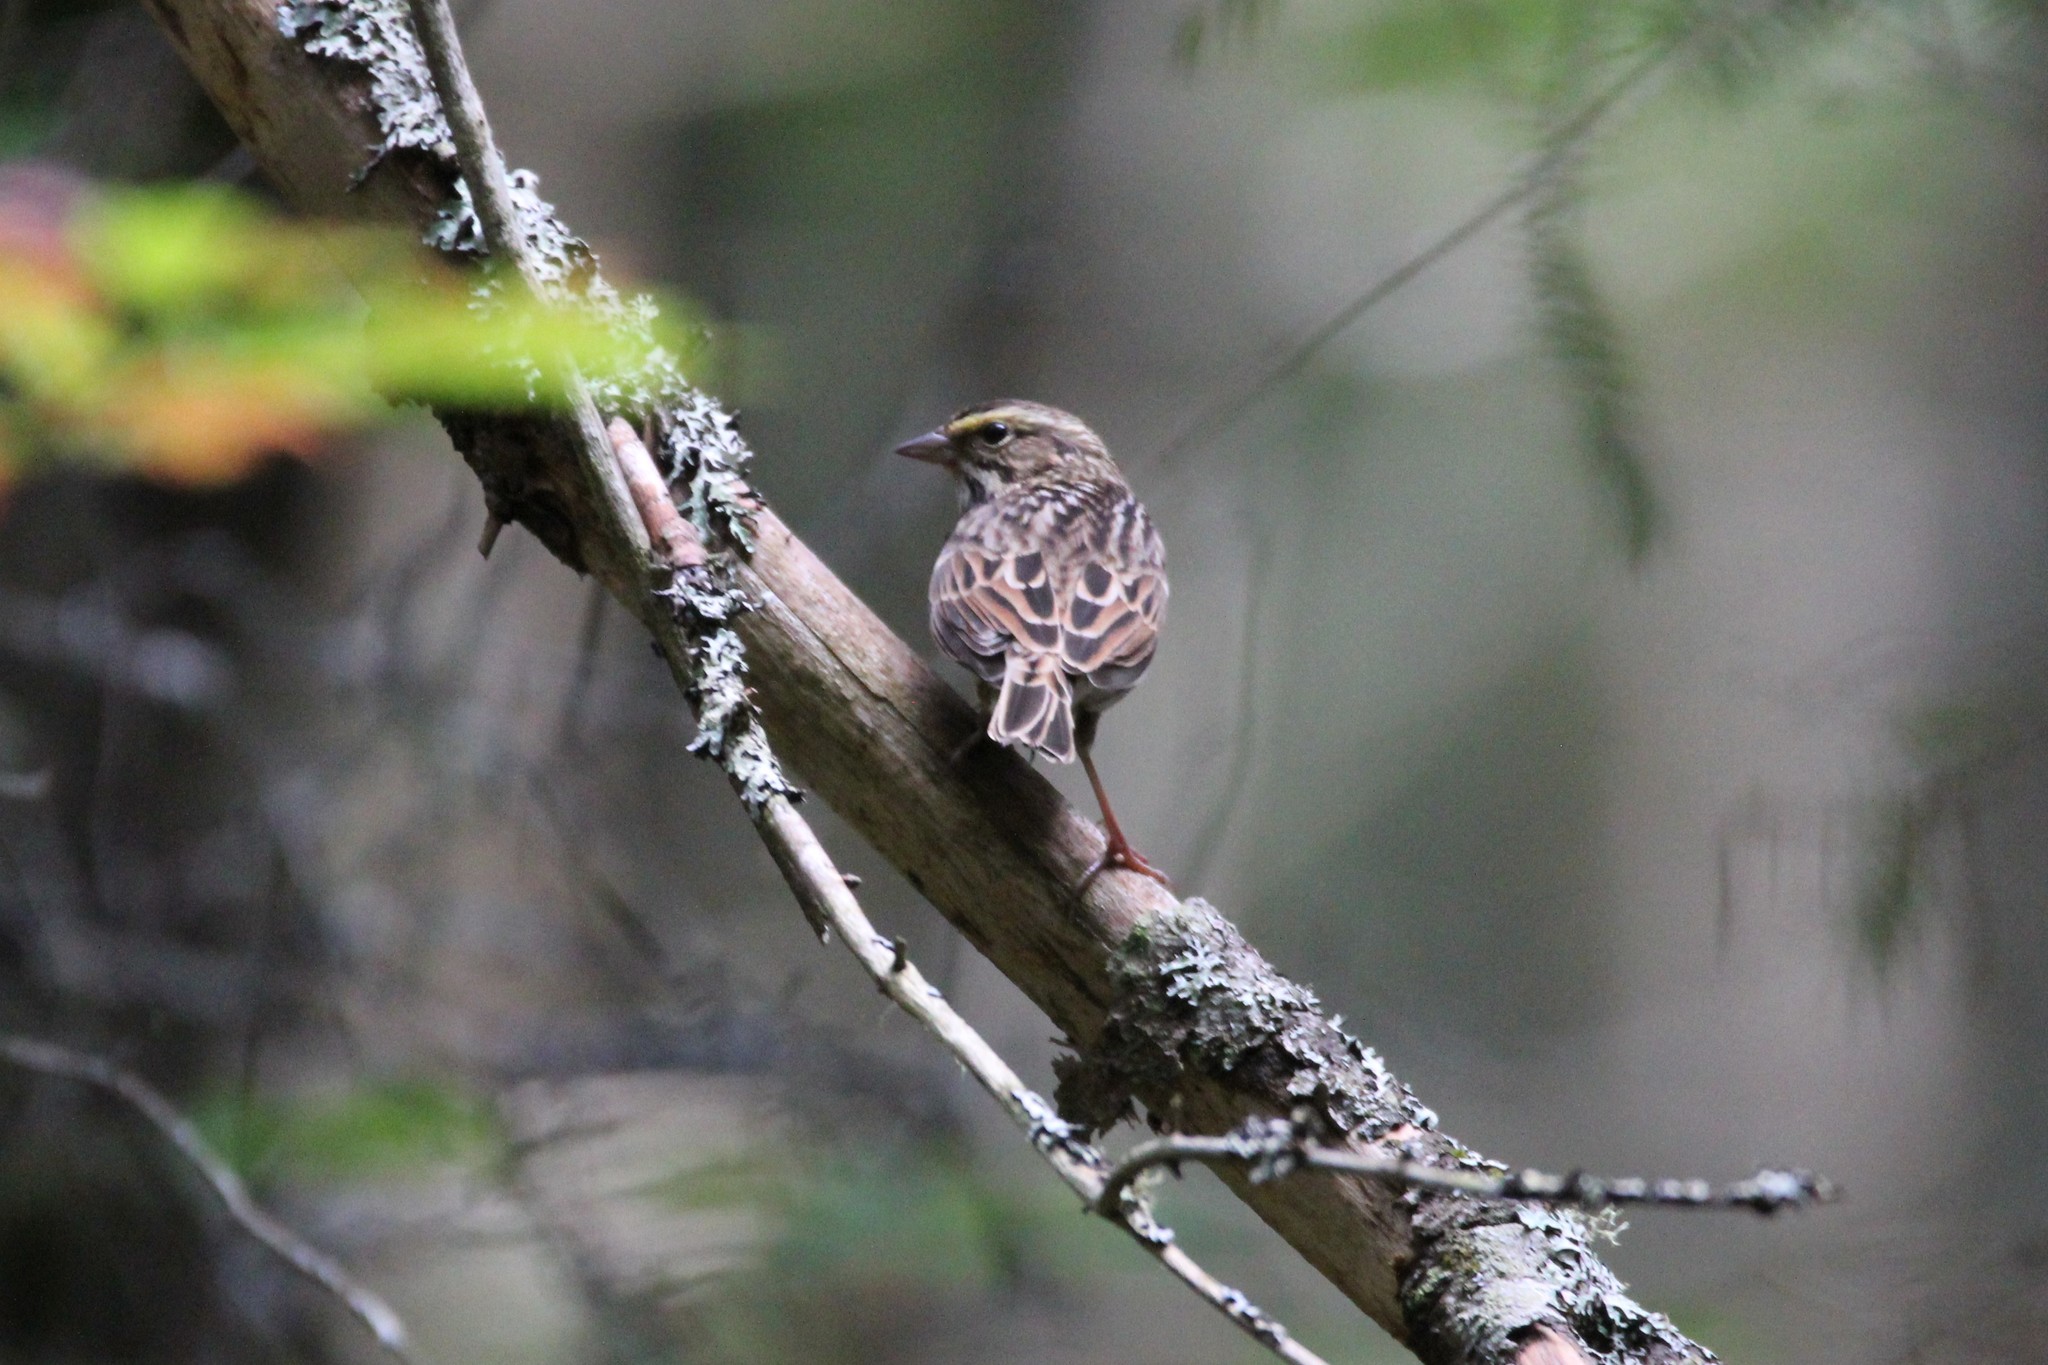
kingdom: Animalia
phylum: Chordata
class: Aves
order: Passeriformes
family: Passerellidae
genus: Passerculus
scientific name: Passerculus sandwichensis
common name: Savannah sparrow
